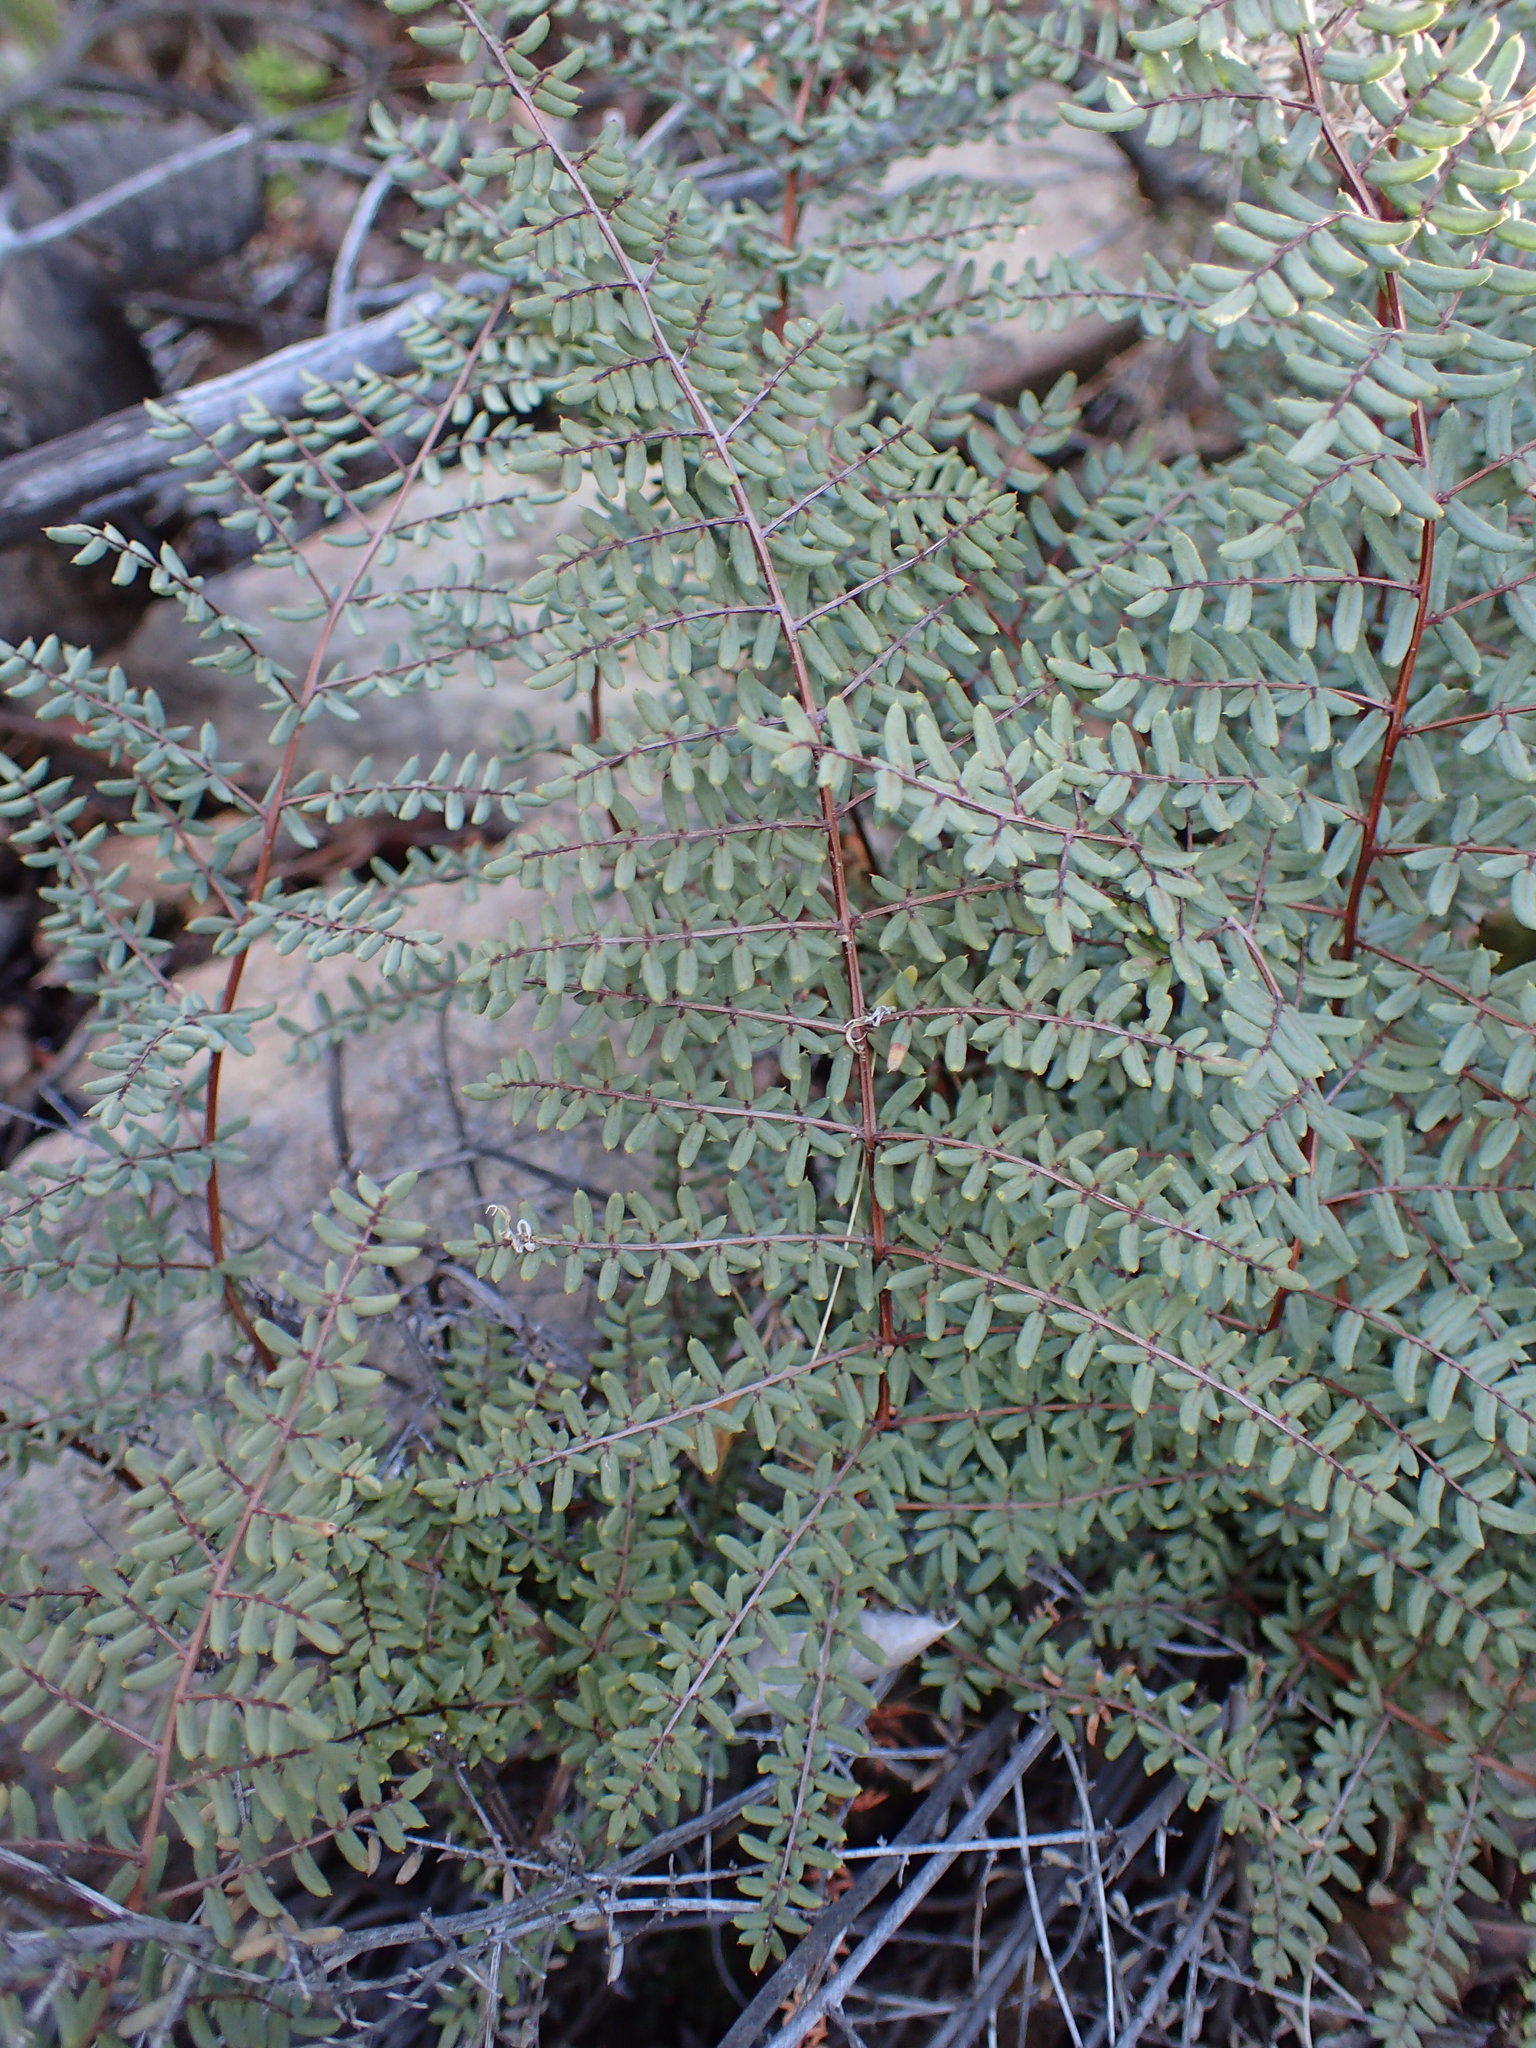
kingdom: Plantae
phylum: Tracheophyta
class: Polypodiopsida
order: Polypodiales
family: Pteridaceae
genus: Pellaea
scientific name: Pellaea mucronata
